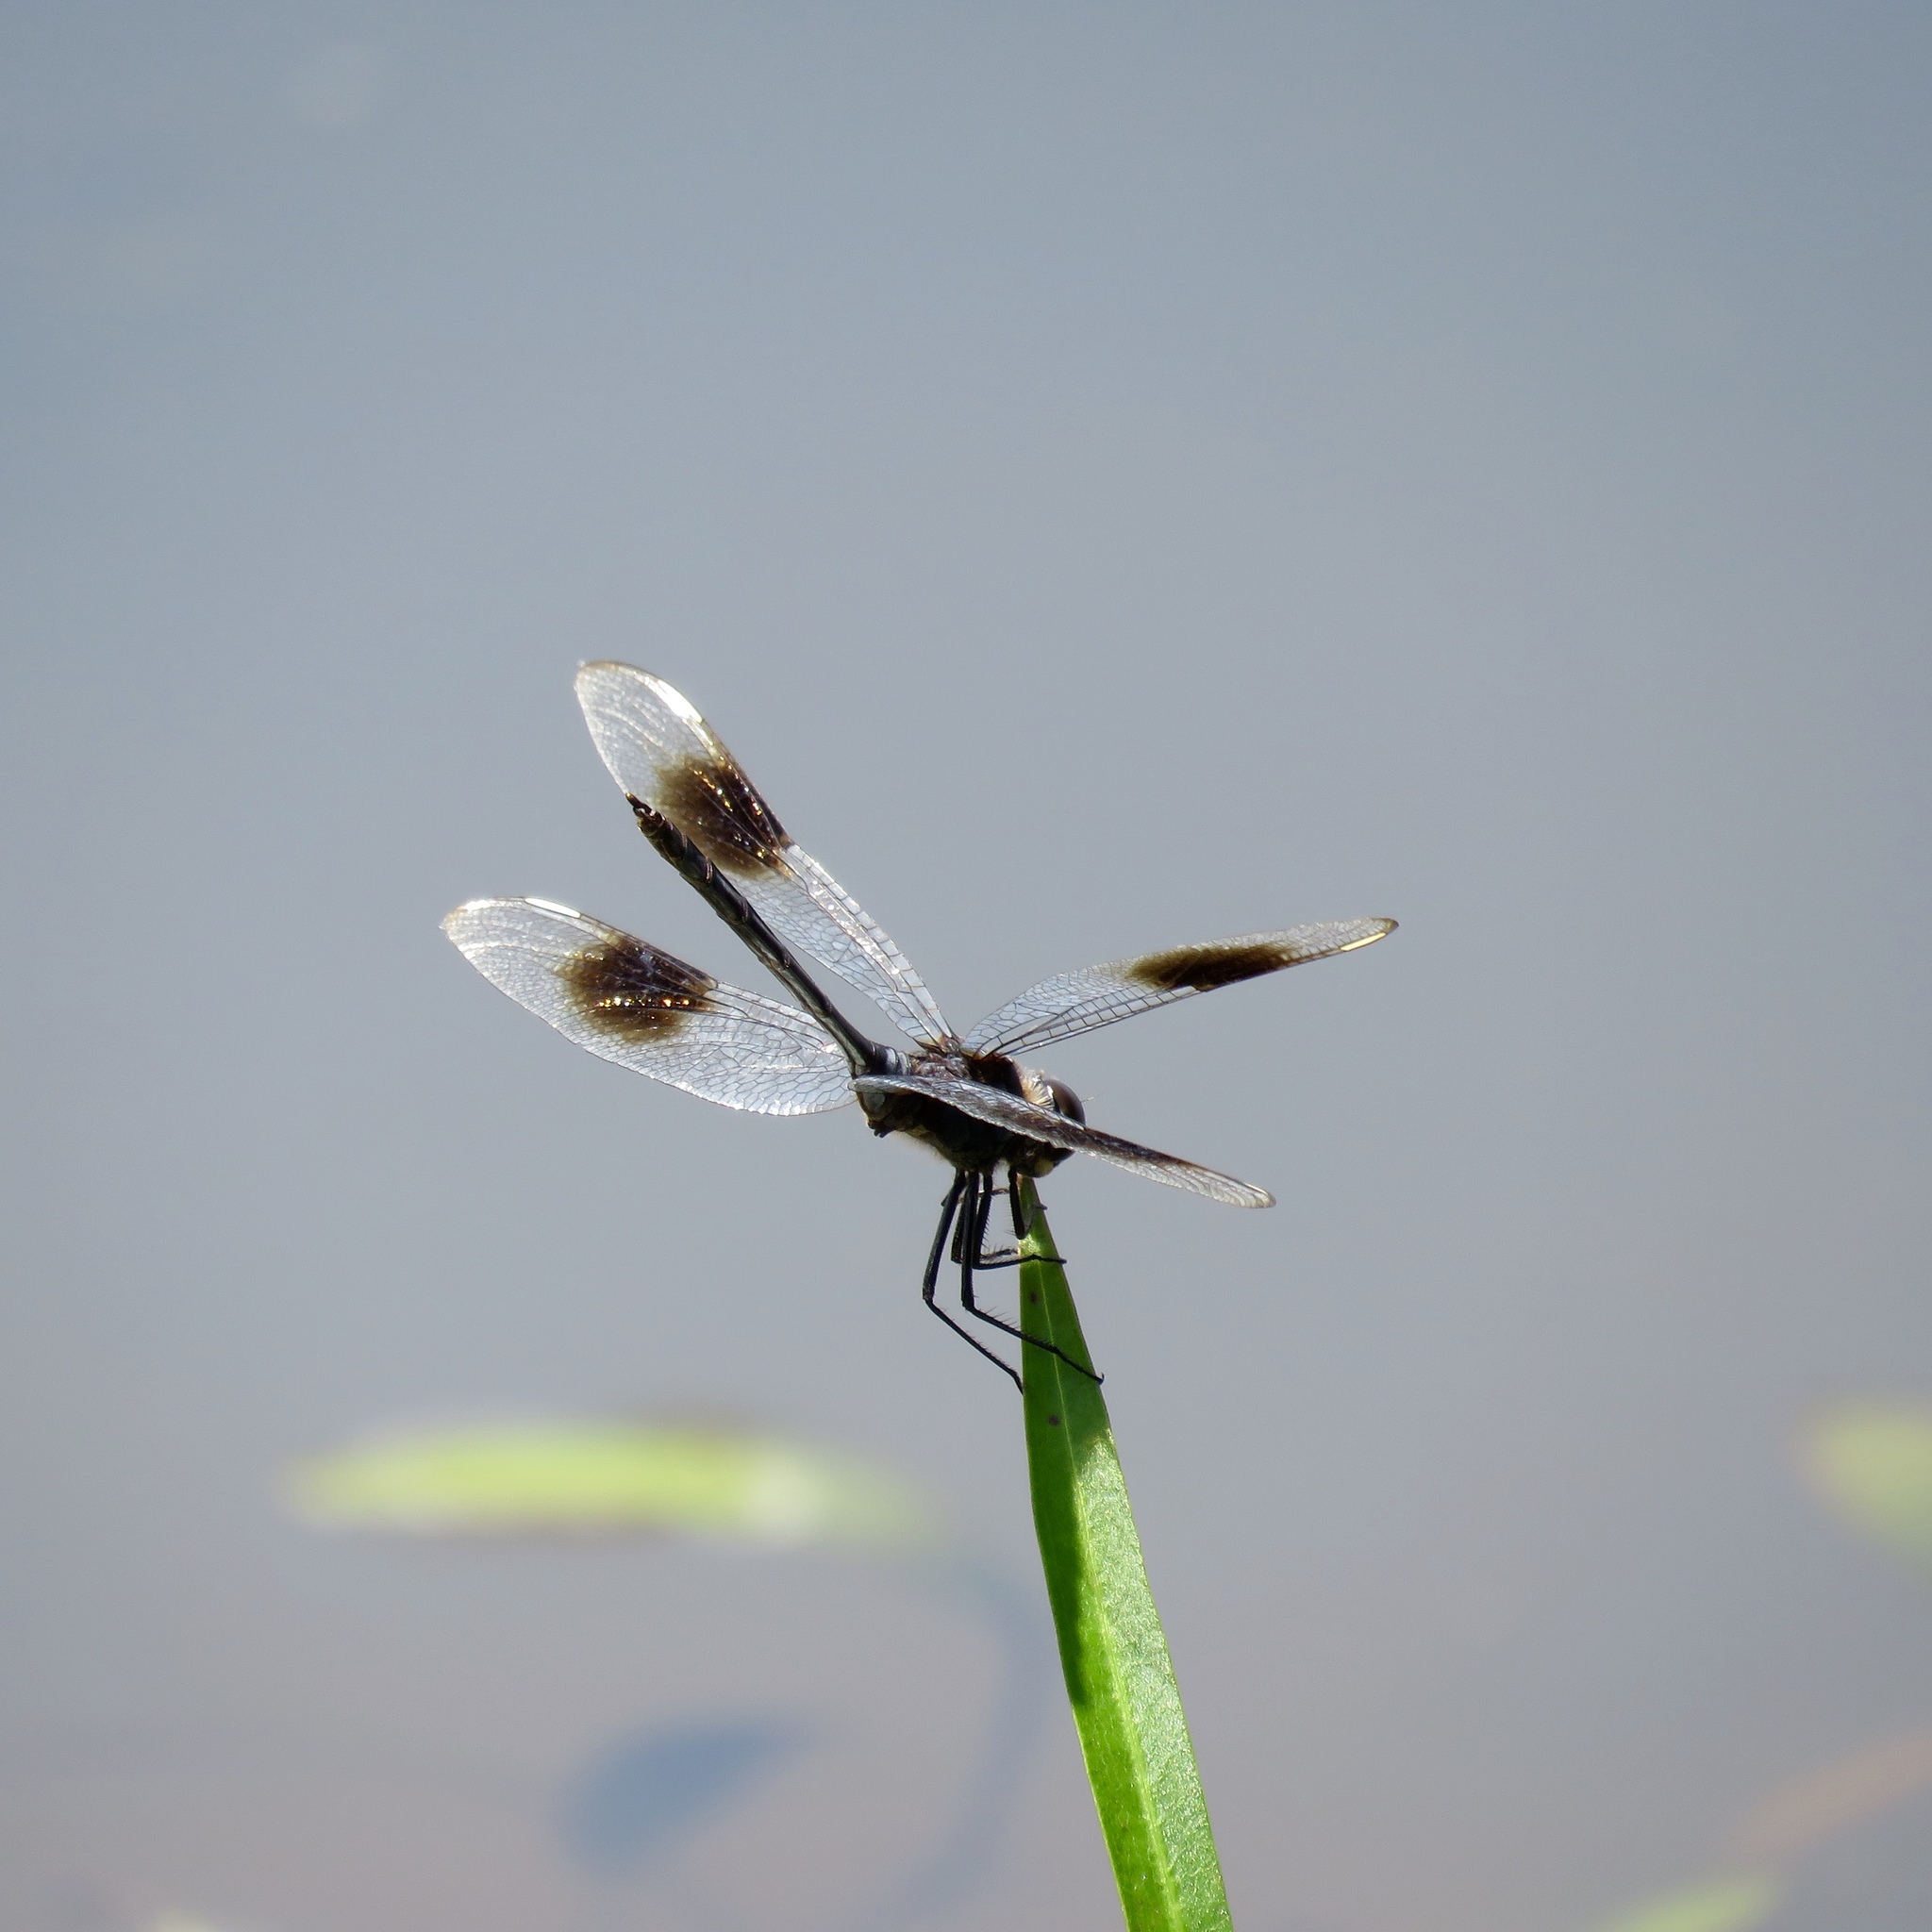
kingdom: Animalia
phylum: Arthropoda
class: Insecta
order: Odonata
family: Libellulidae
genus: Brachymesia
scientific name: Brachymesia gravida
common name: Four-spotted pennant
